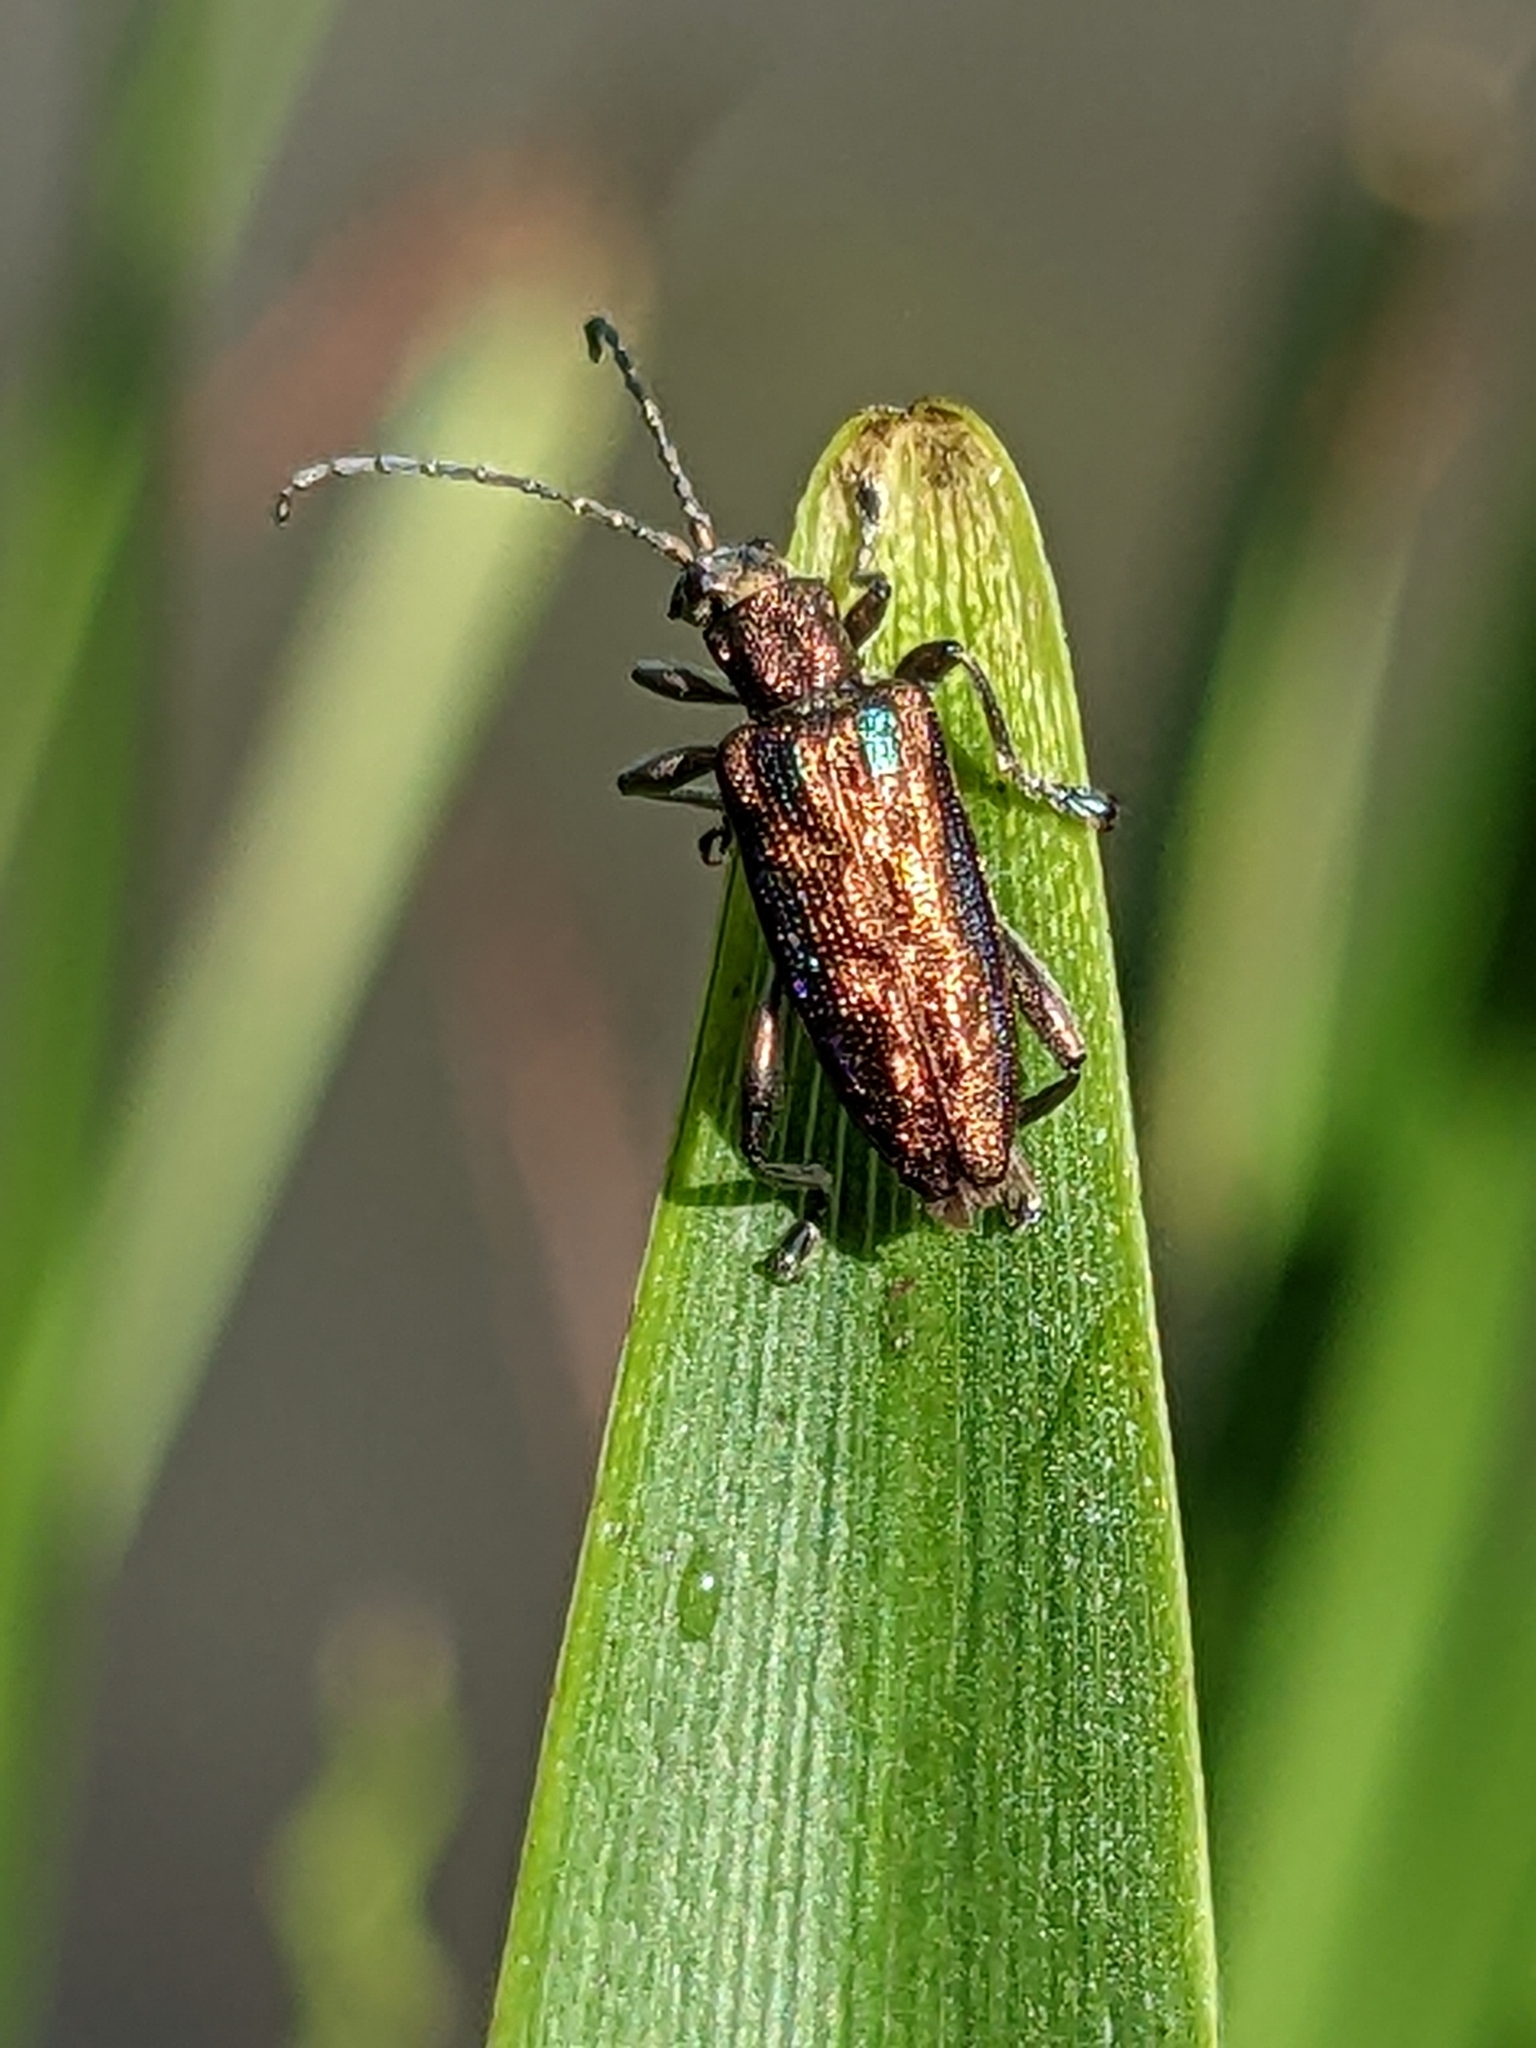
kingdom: Animalia
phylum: Arthropoda
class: Insecta
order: Coleoptera
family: Chrysomelidae
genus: Donacia
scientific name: Donacia marginata
